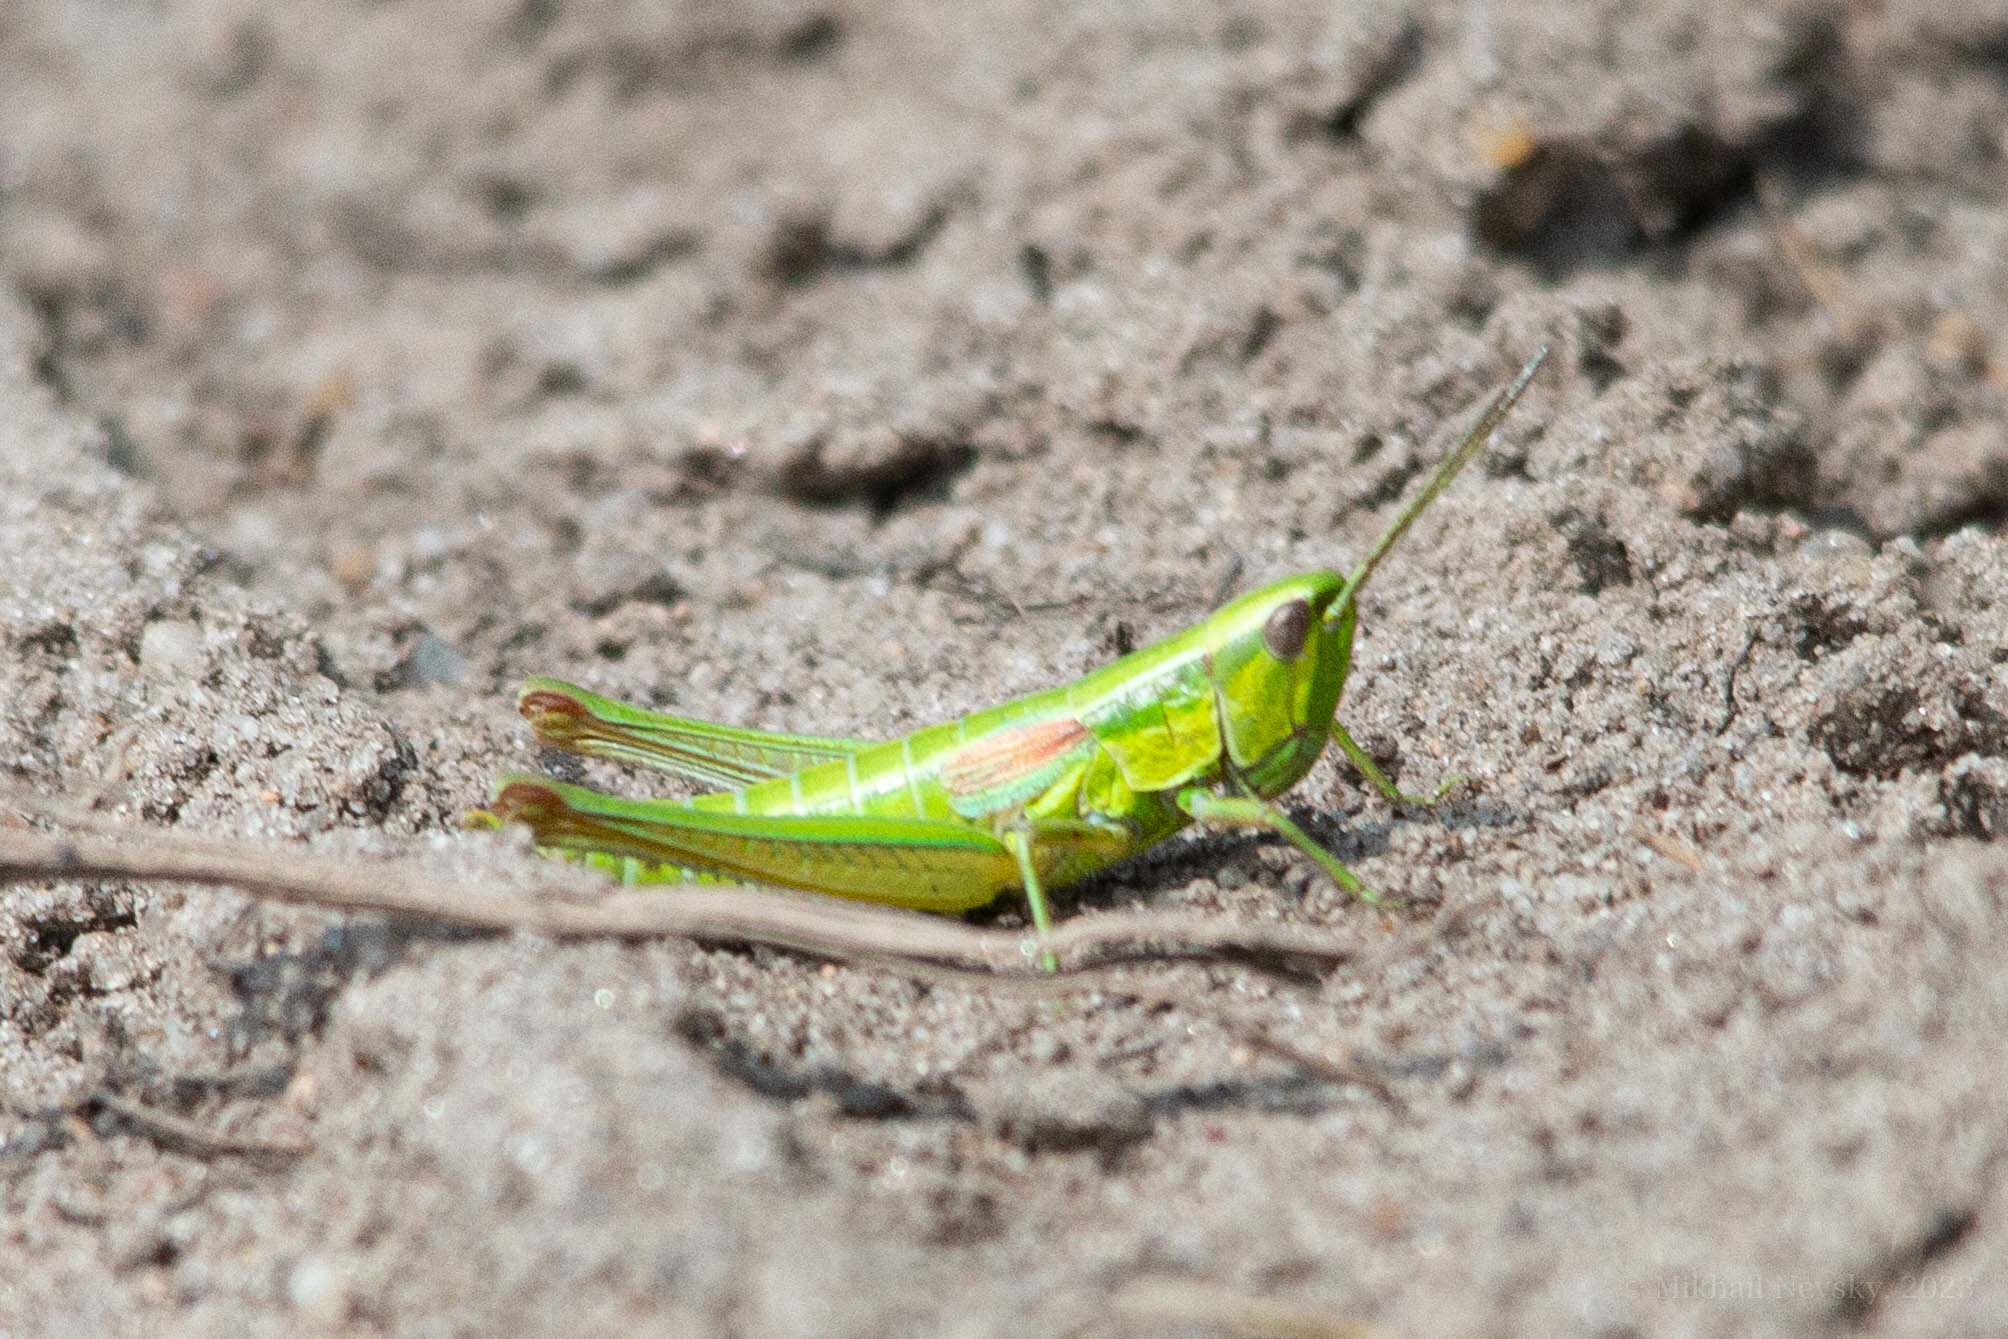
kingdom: Animalia
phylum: Arthropoda
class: Insecta
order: Orthoptera
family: Acrididae
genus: Euthystira
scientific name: Euthystira brachyptera
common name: Small gold grasshopper
